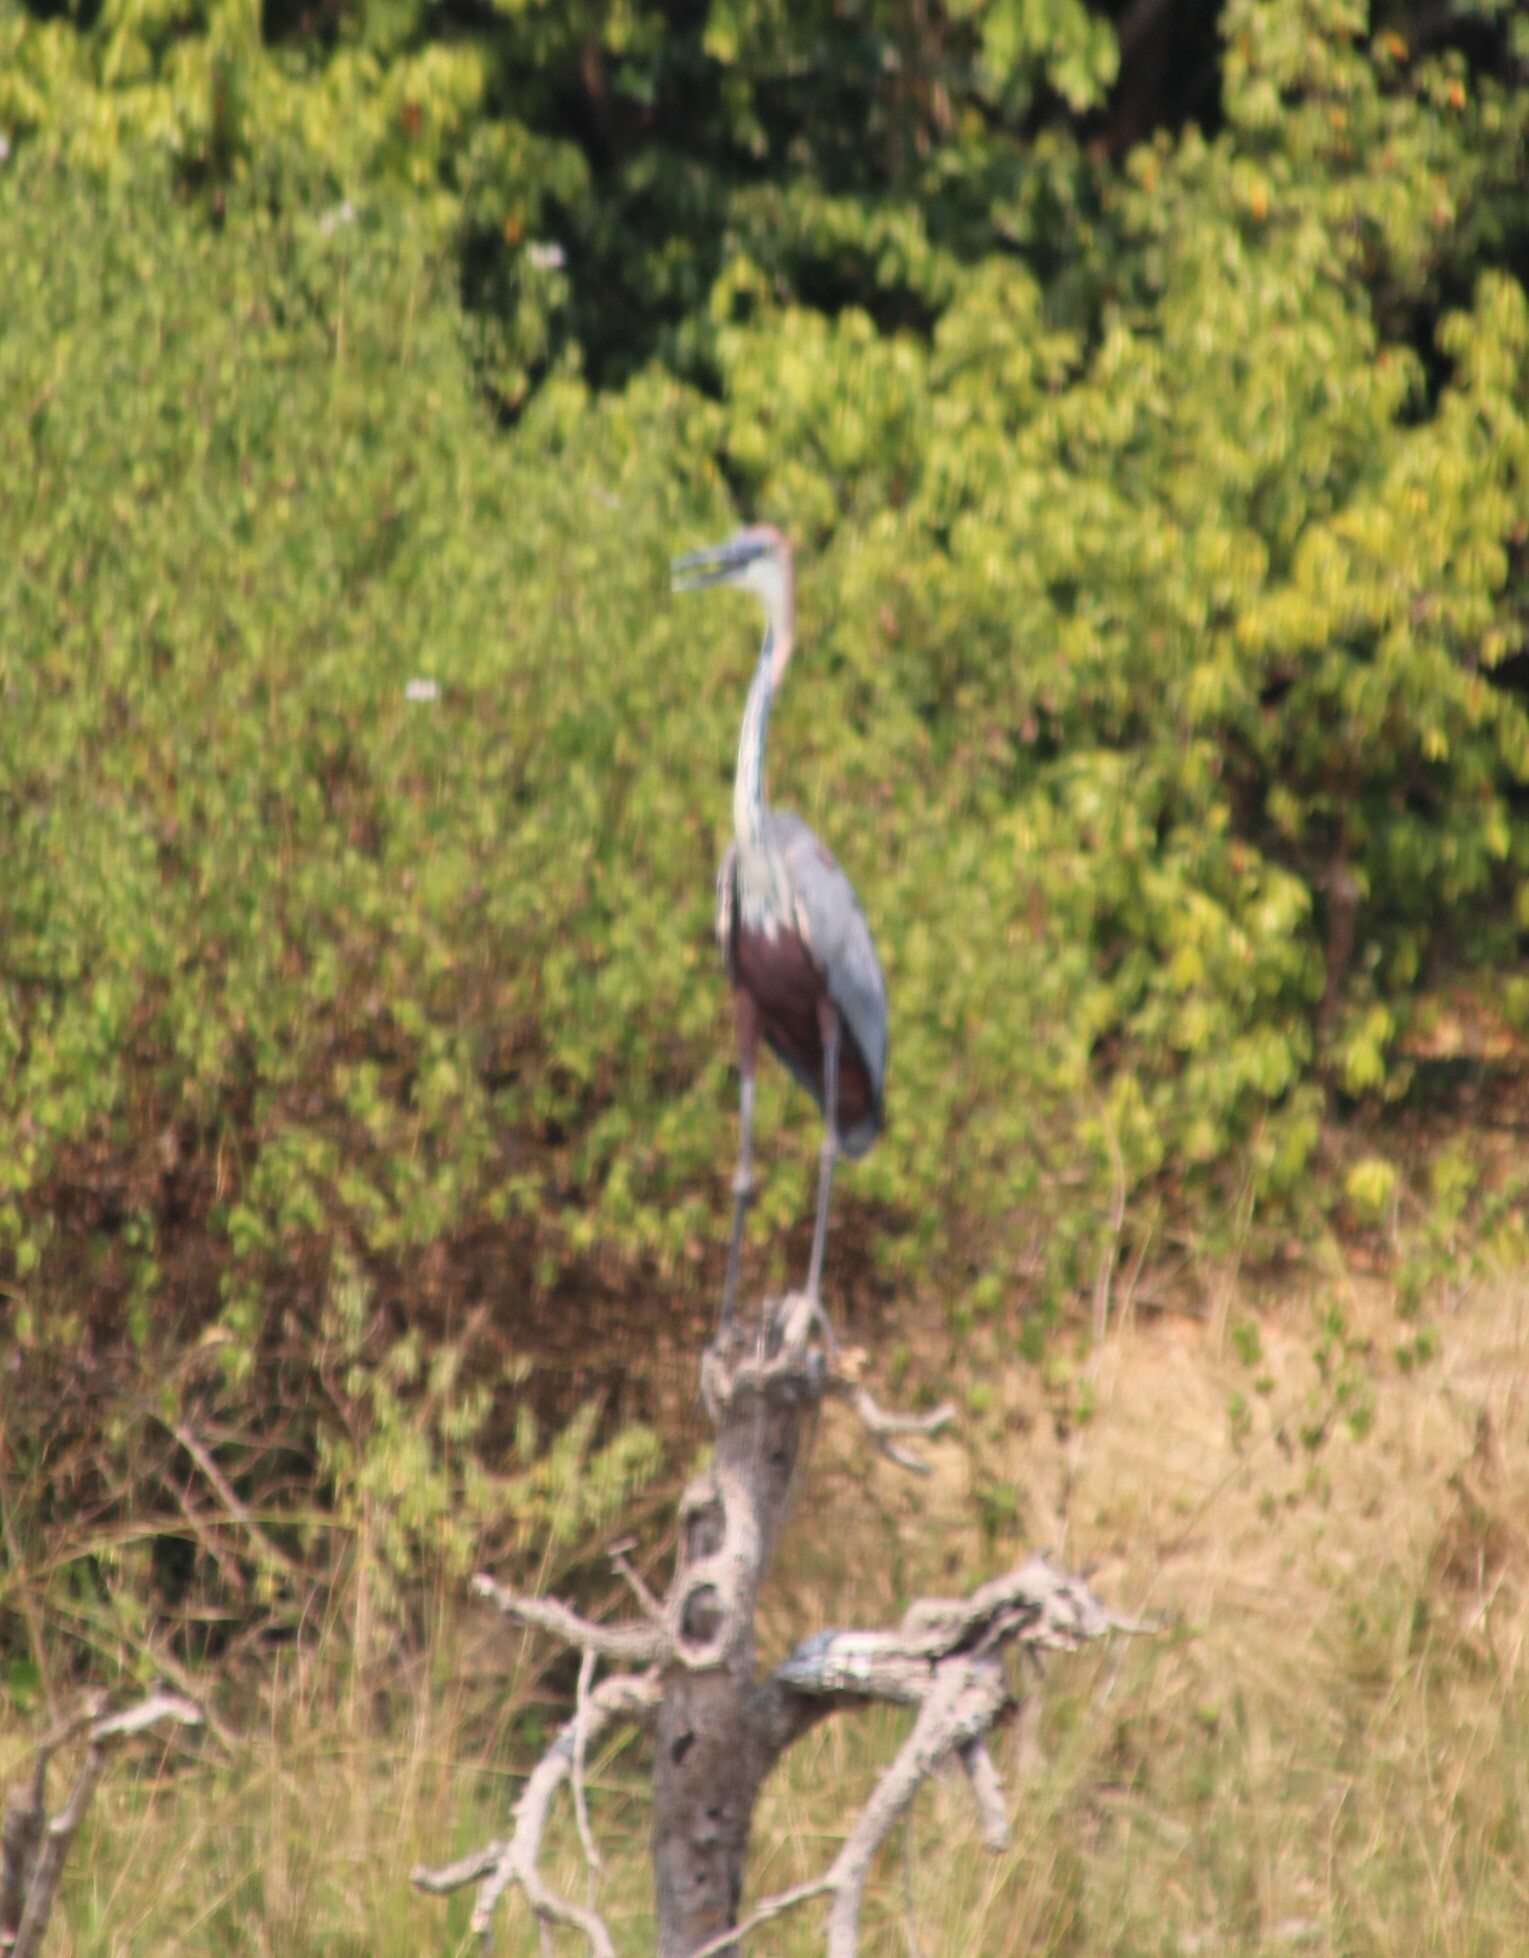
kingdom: Animalia
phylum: Chordata
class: Aves
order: Pelecaniformes
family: Ardeidae
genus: Ardea
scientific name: Ardea goliath
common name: Goliath heron
